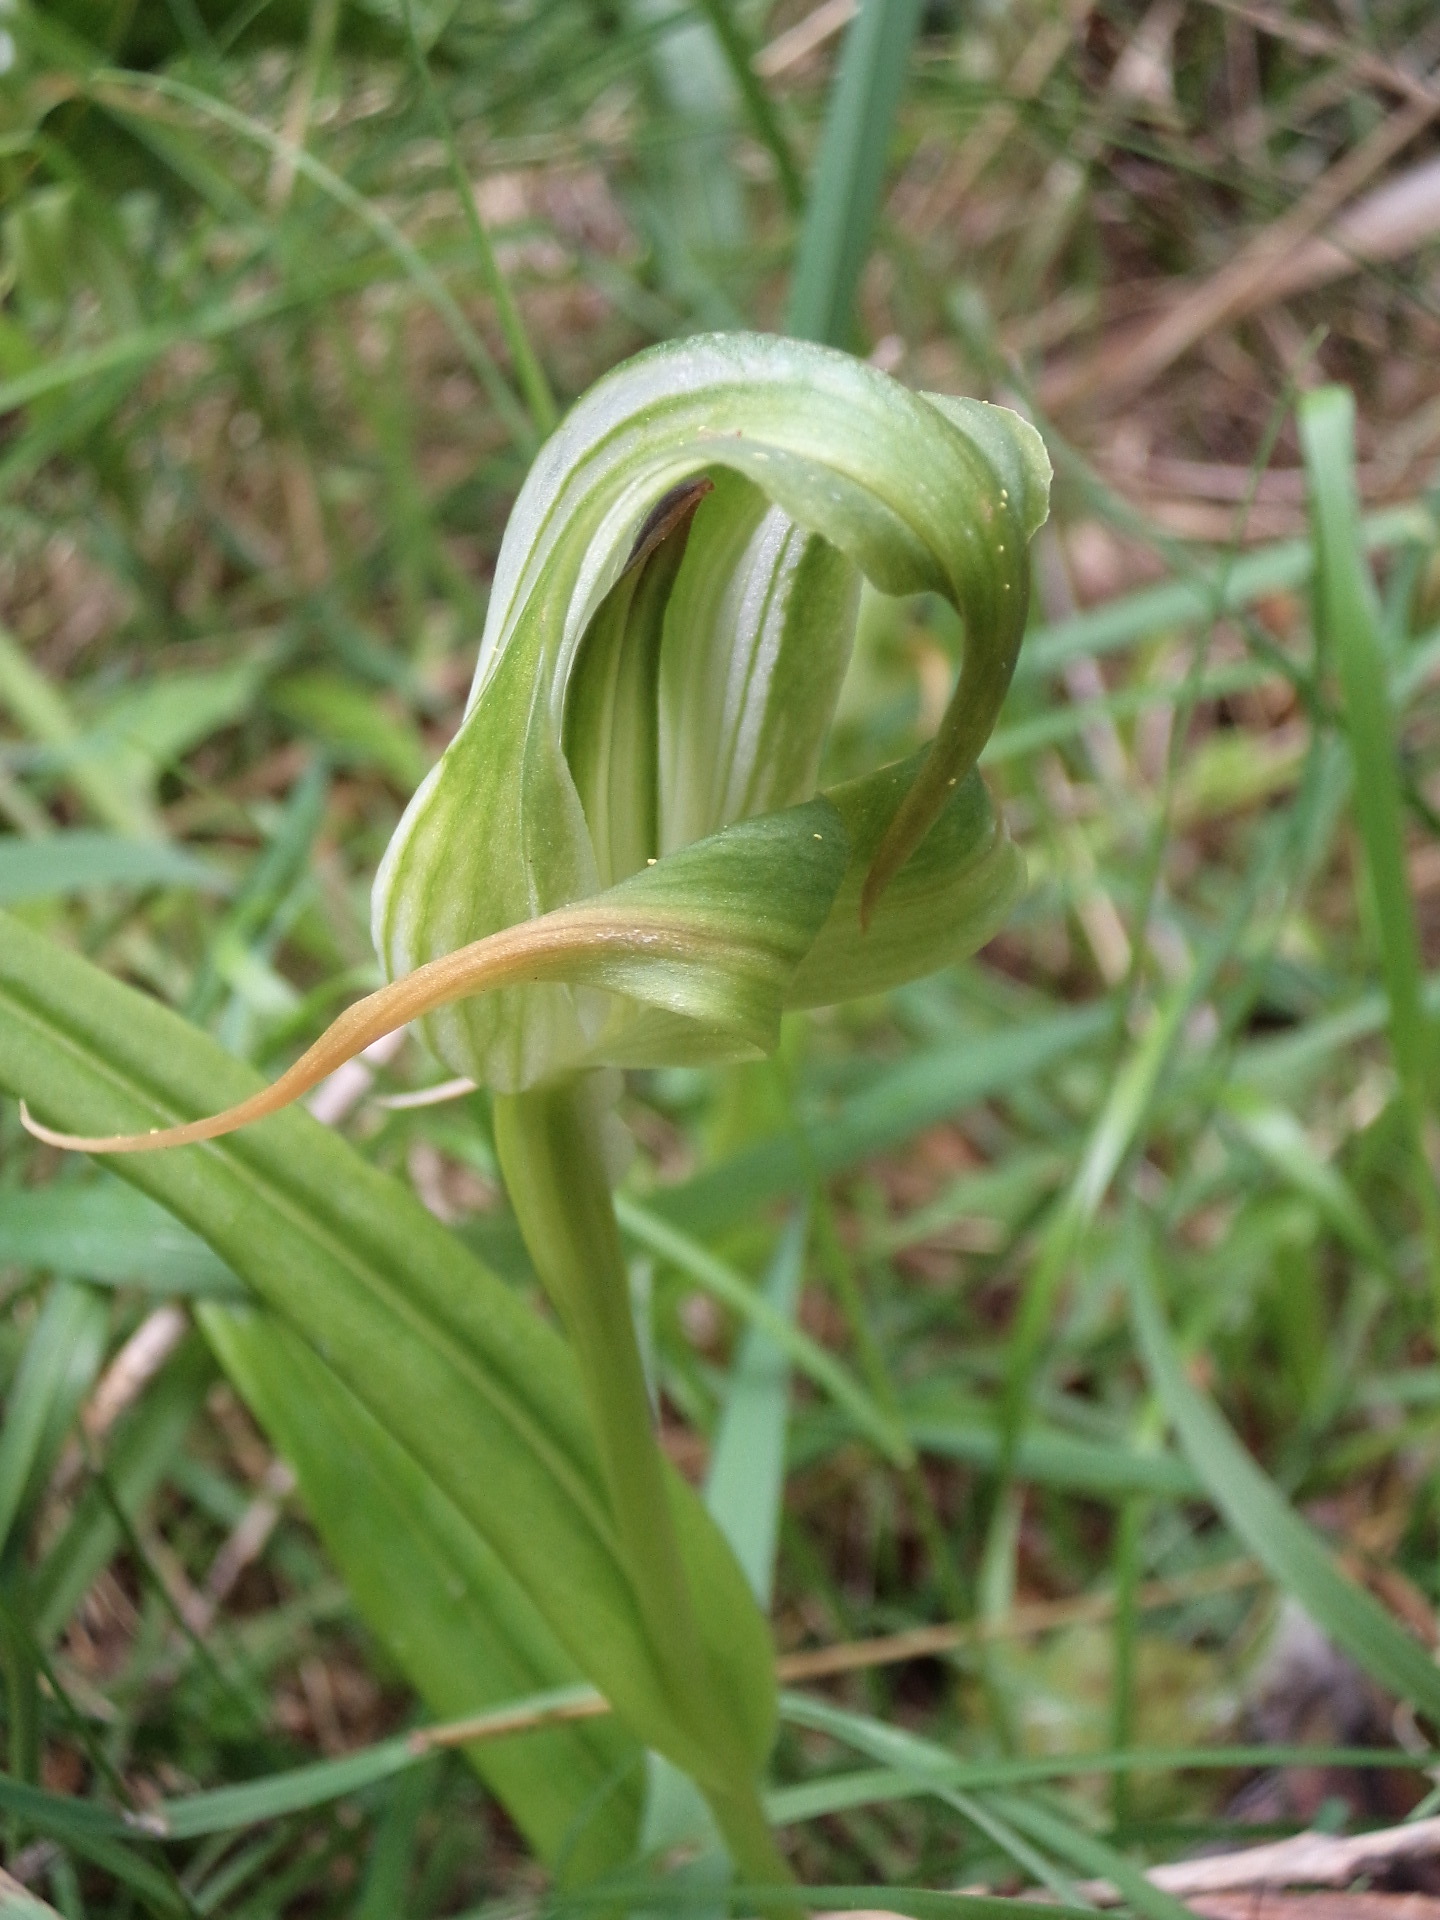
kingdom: Plantae
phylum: Tracheophyta
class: Liliopsida
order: Asparagales
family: Orchidaceae
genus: Pterostylis
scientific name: Pterostylis patens
